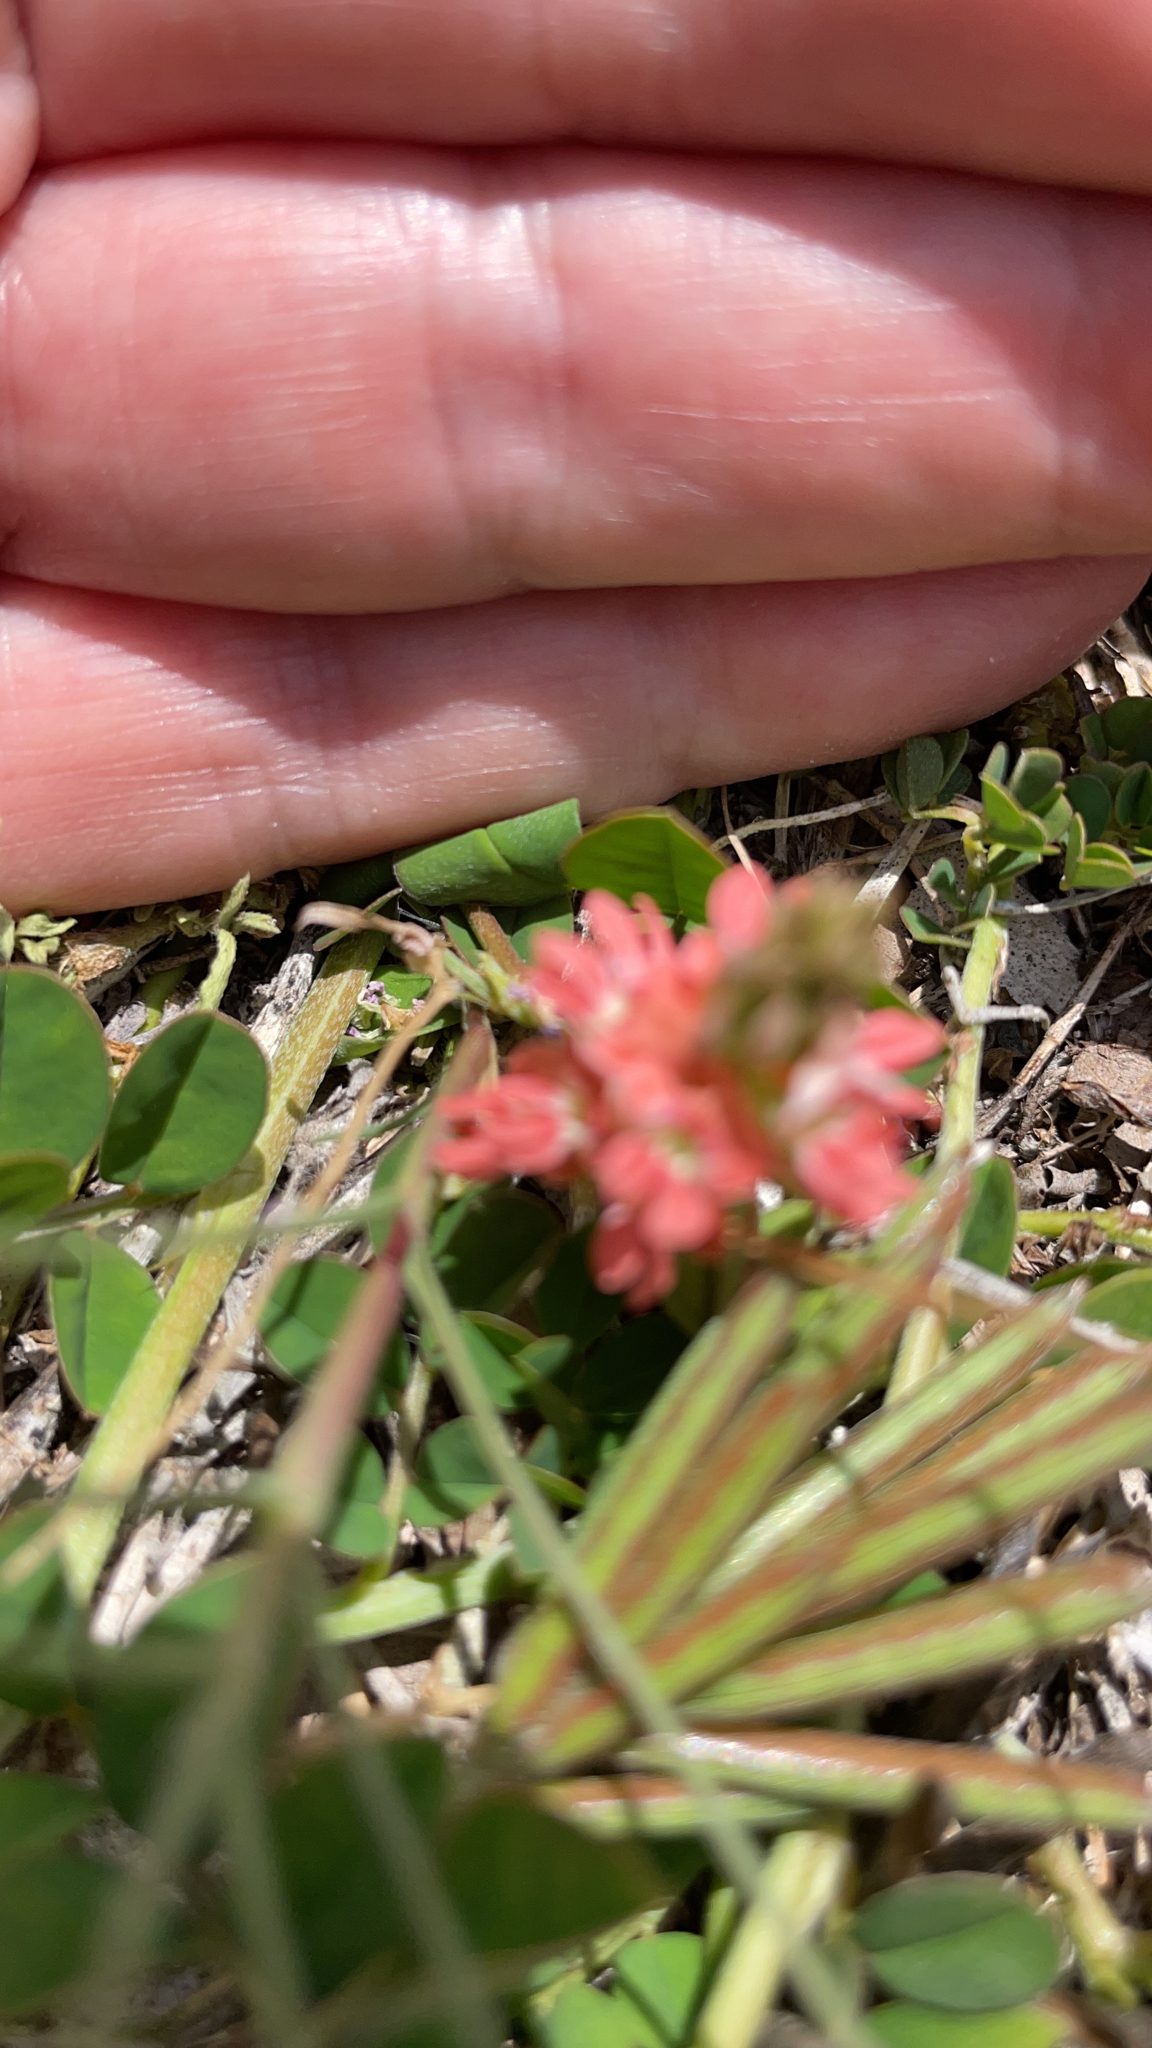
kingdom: Plantae
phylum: Tracheophyta
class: Magnoliopsida
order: Fabales
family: Fabaceae
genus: Indigofera
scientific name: Indigofera spicata
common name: Creeping indigo
